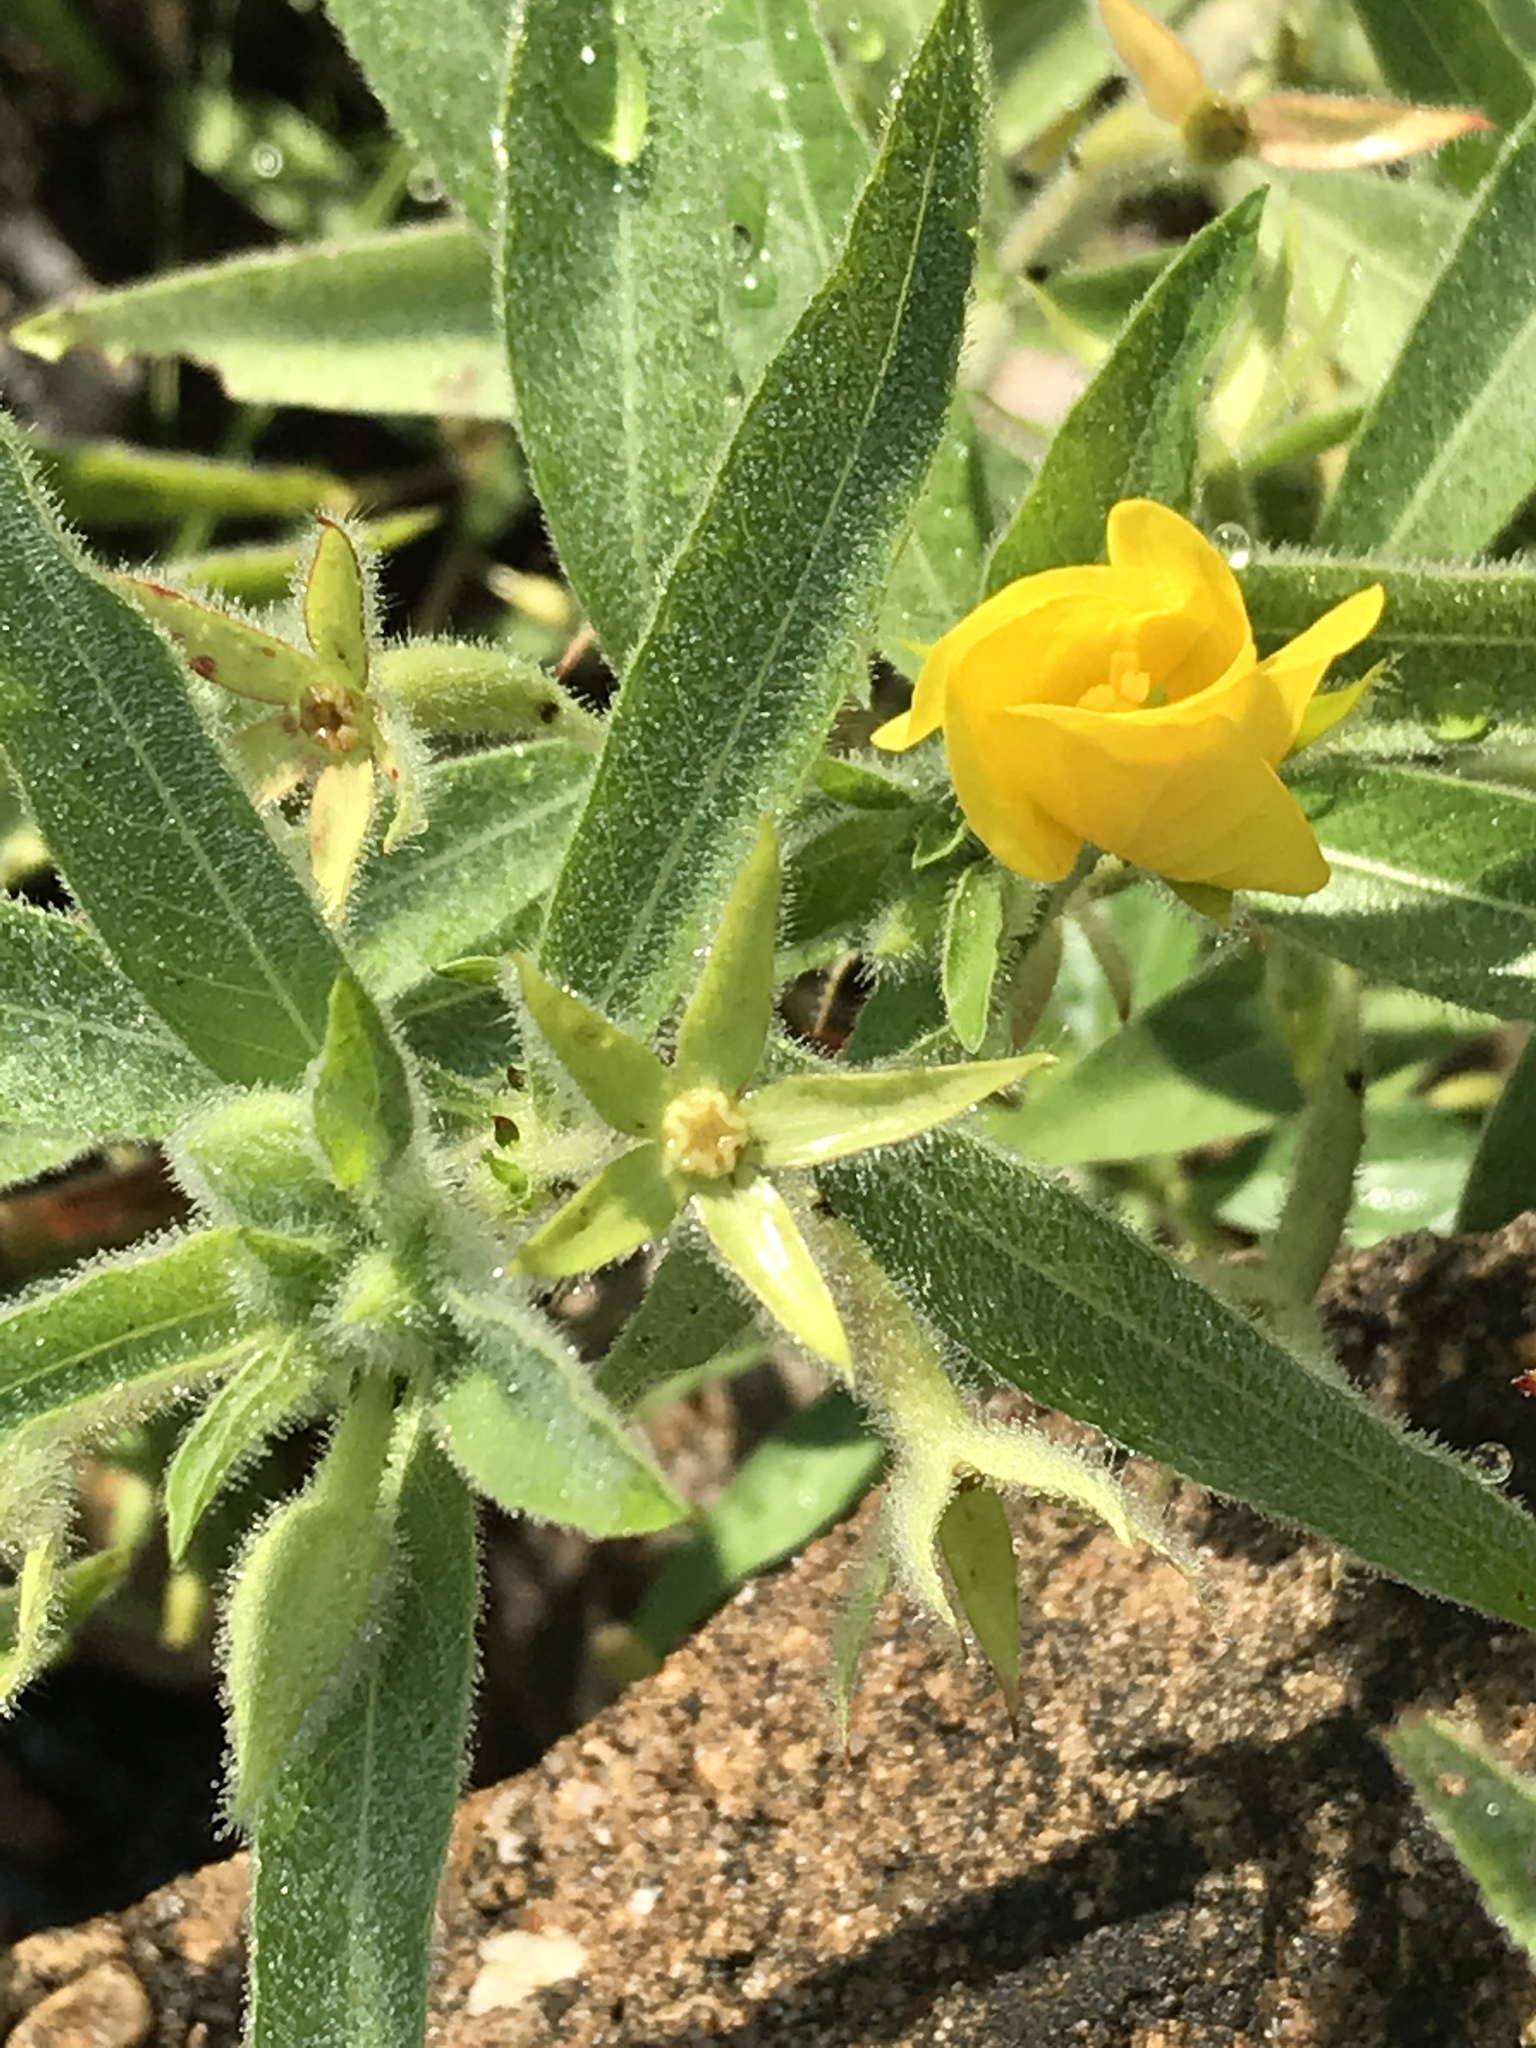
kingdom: Plantae
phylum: Tracheophyta
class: Magnoliopsida
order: Myrtales
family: Onagraceae
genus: Ludwigia
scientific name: Ludwigia hexapetala
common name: Water-primrose
